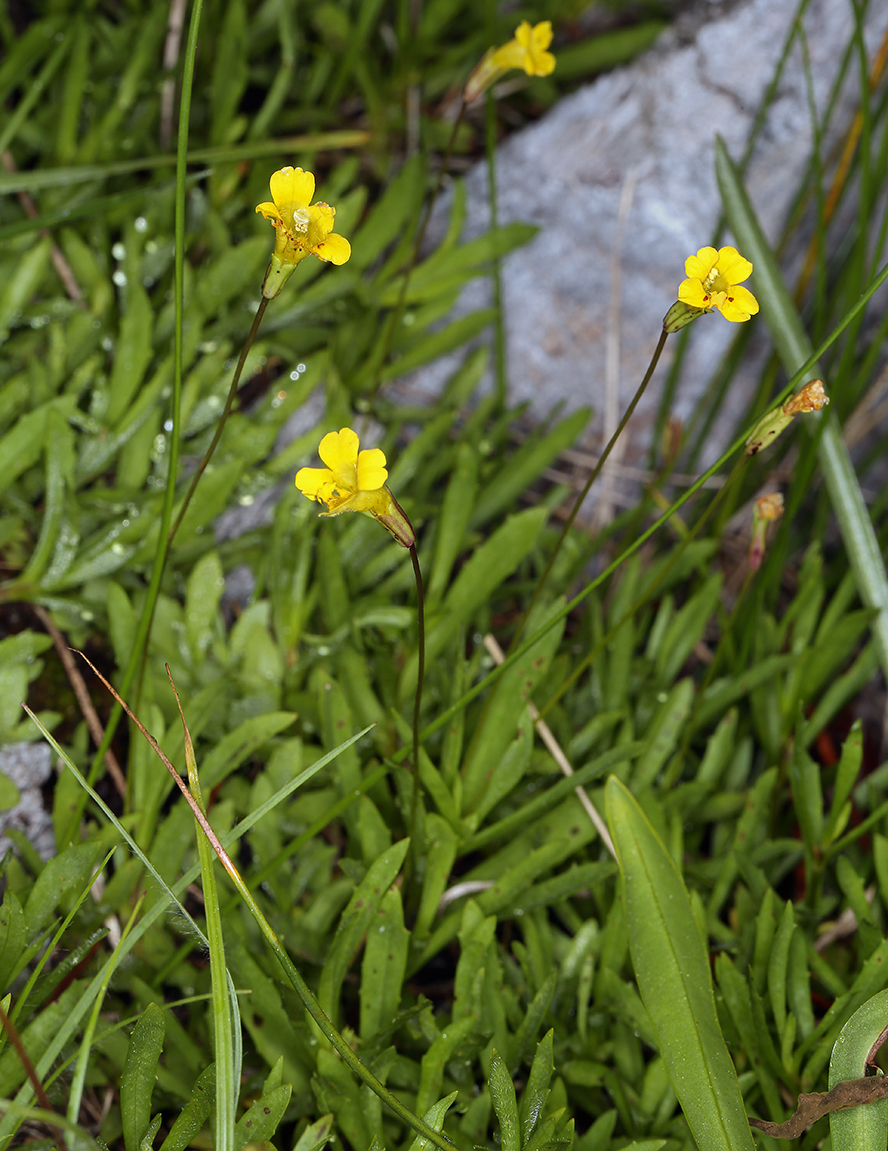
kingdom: Plantae
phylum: Tracheophyta
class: Magnoliopsida
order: Lamiales
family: Phrymaceae
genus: Erythranthe
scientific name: Erythranthe linearifolia
